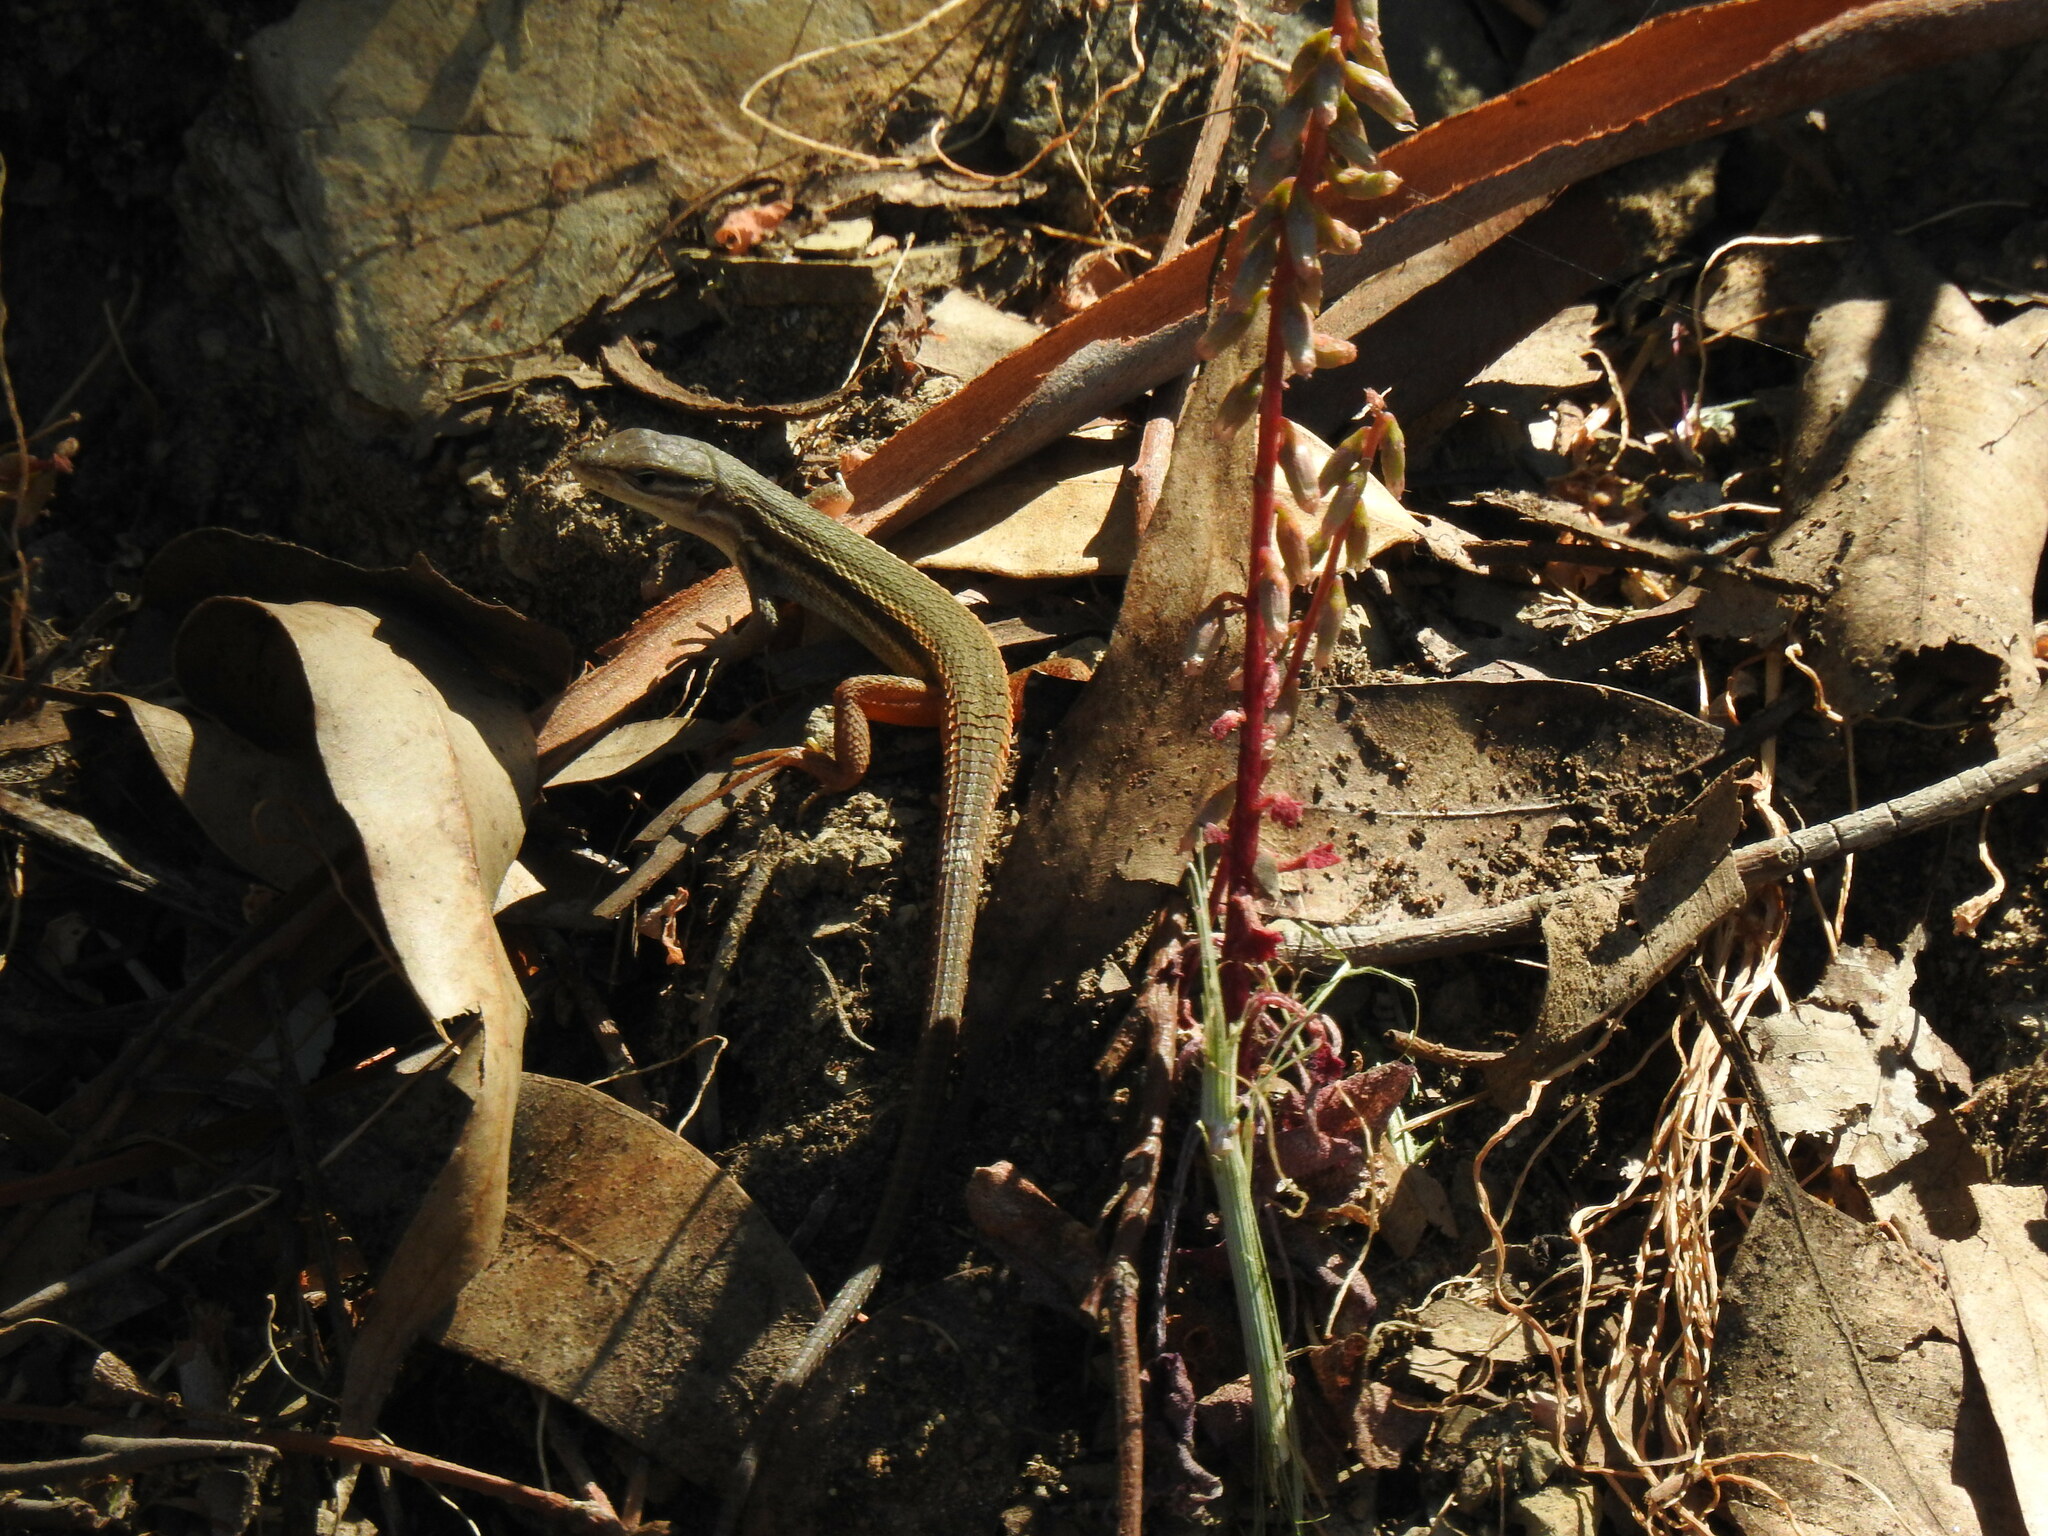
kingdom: Animalia
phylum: Chordata
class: Squamata
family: Lacertidae
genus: Psammodromus
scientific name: Psammodromus algirus
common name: Algerian psammodromus
